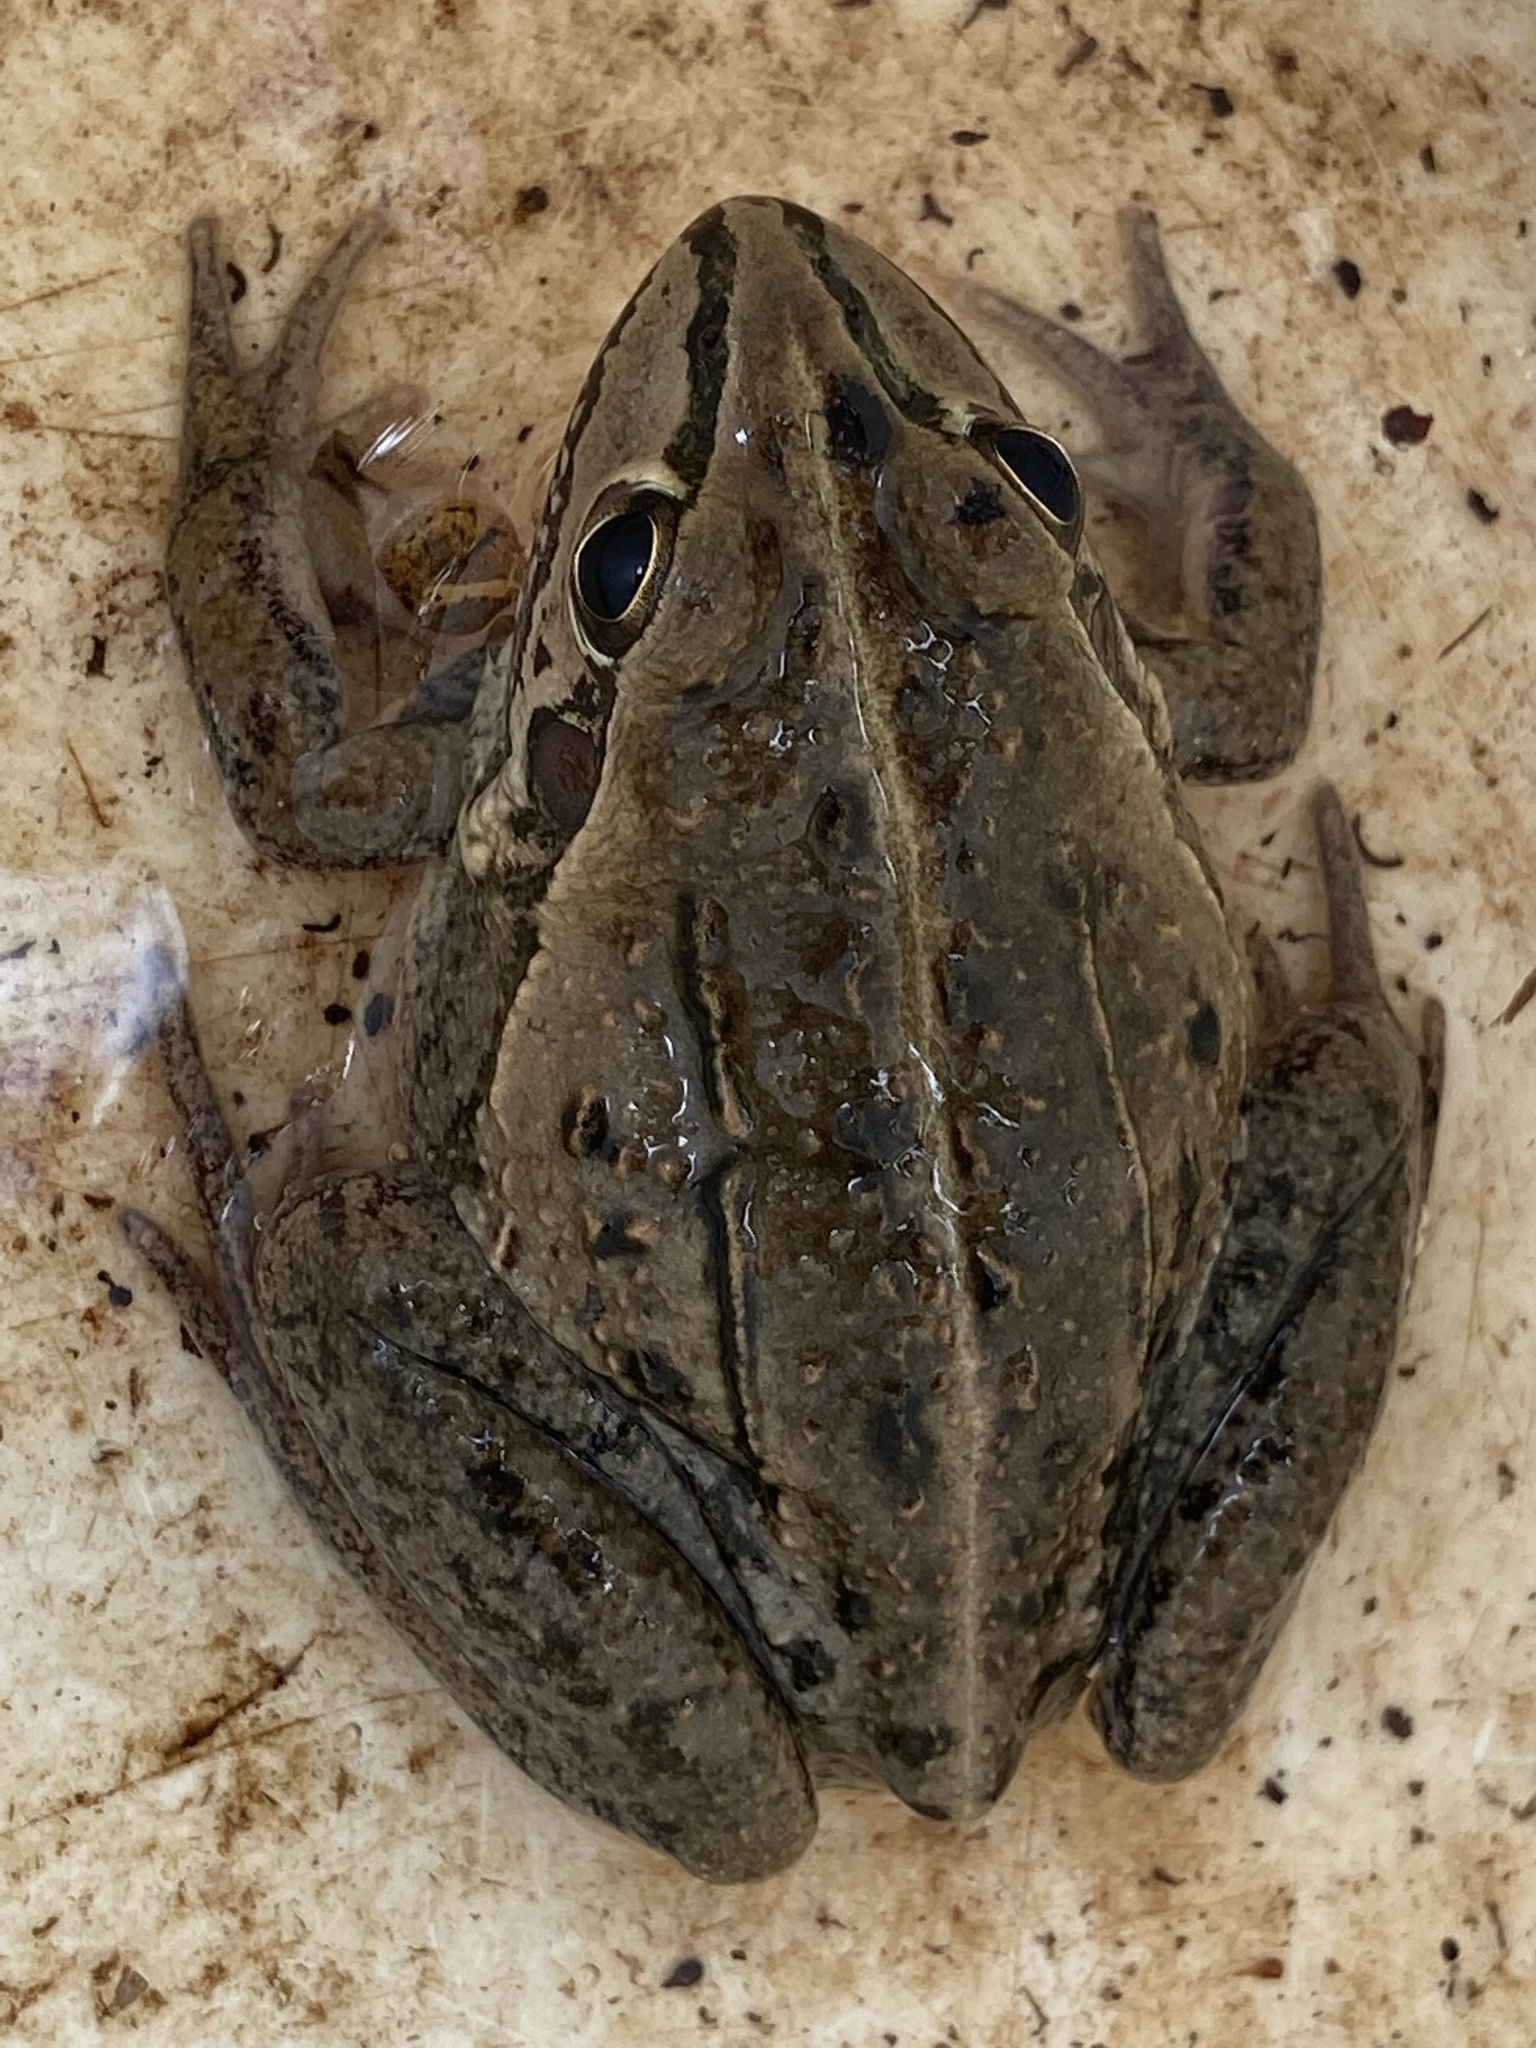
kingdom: Animalia
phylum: Chordata
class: Amphibia
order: Anura
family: Pelodryadidae
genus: Ranoidea
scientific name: Ranoidea alboguttata
